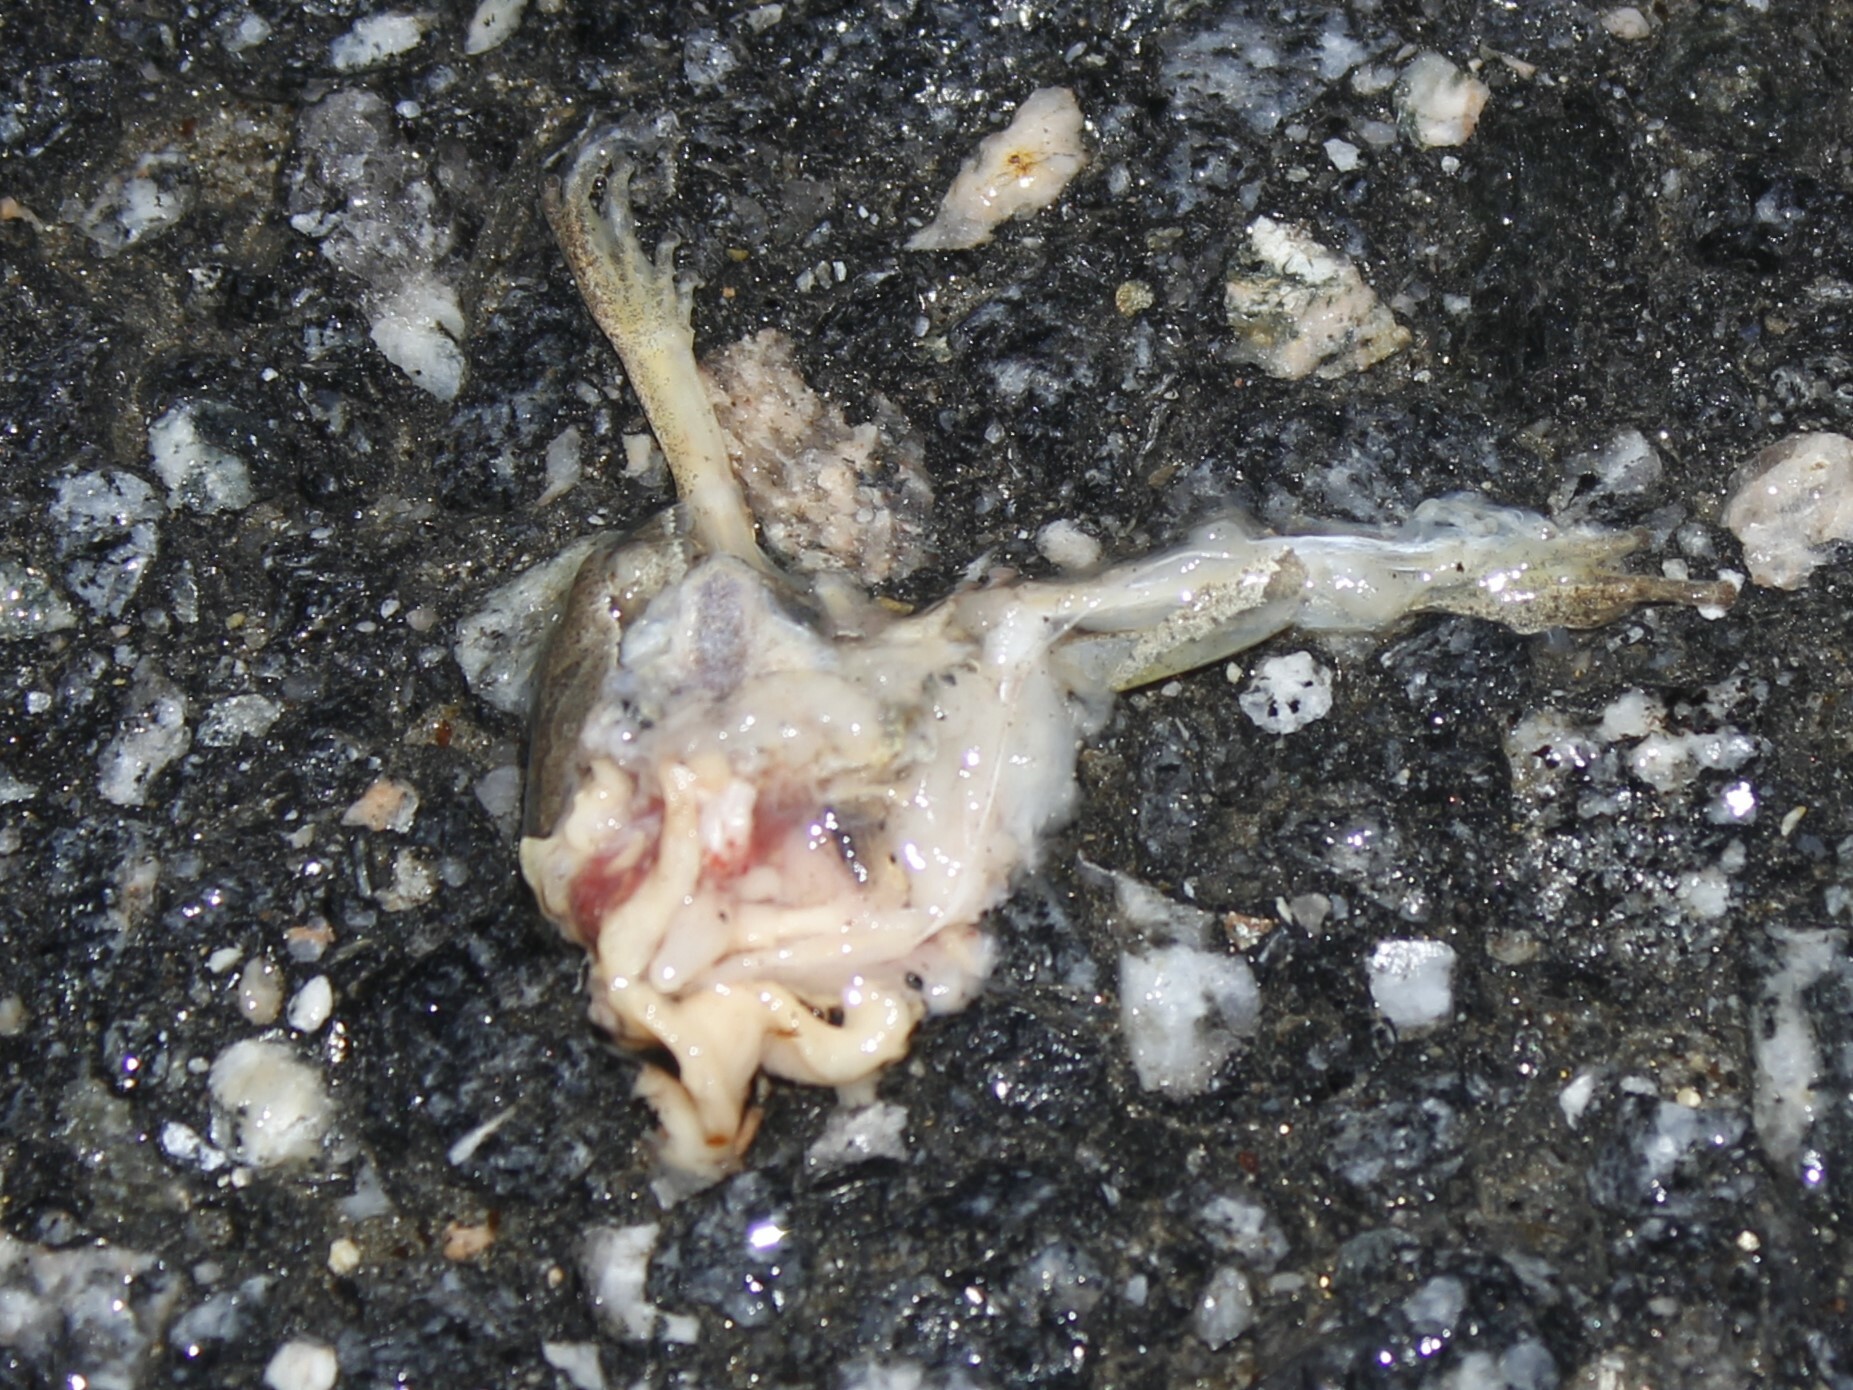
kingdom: Animalia
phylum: Chordata
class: Amphibia
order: Anura
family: Hylidae
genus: Pseudacris
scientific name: Pseudacris crucifer
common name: Spring peeper
